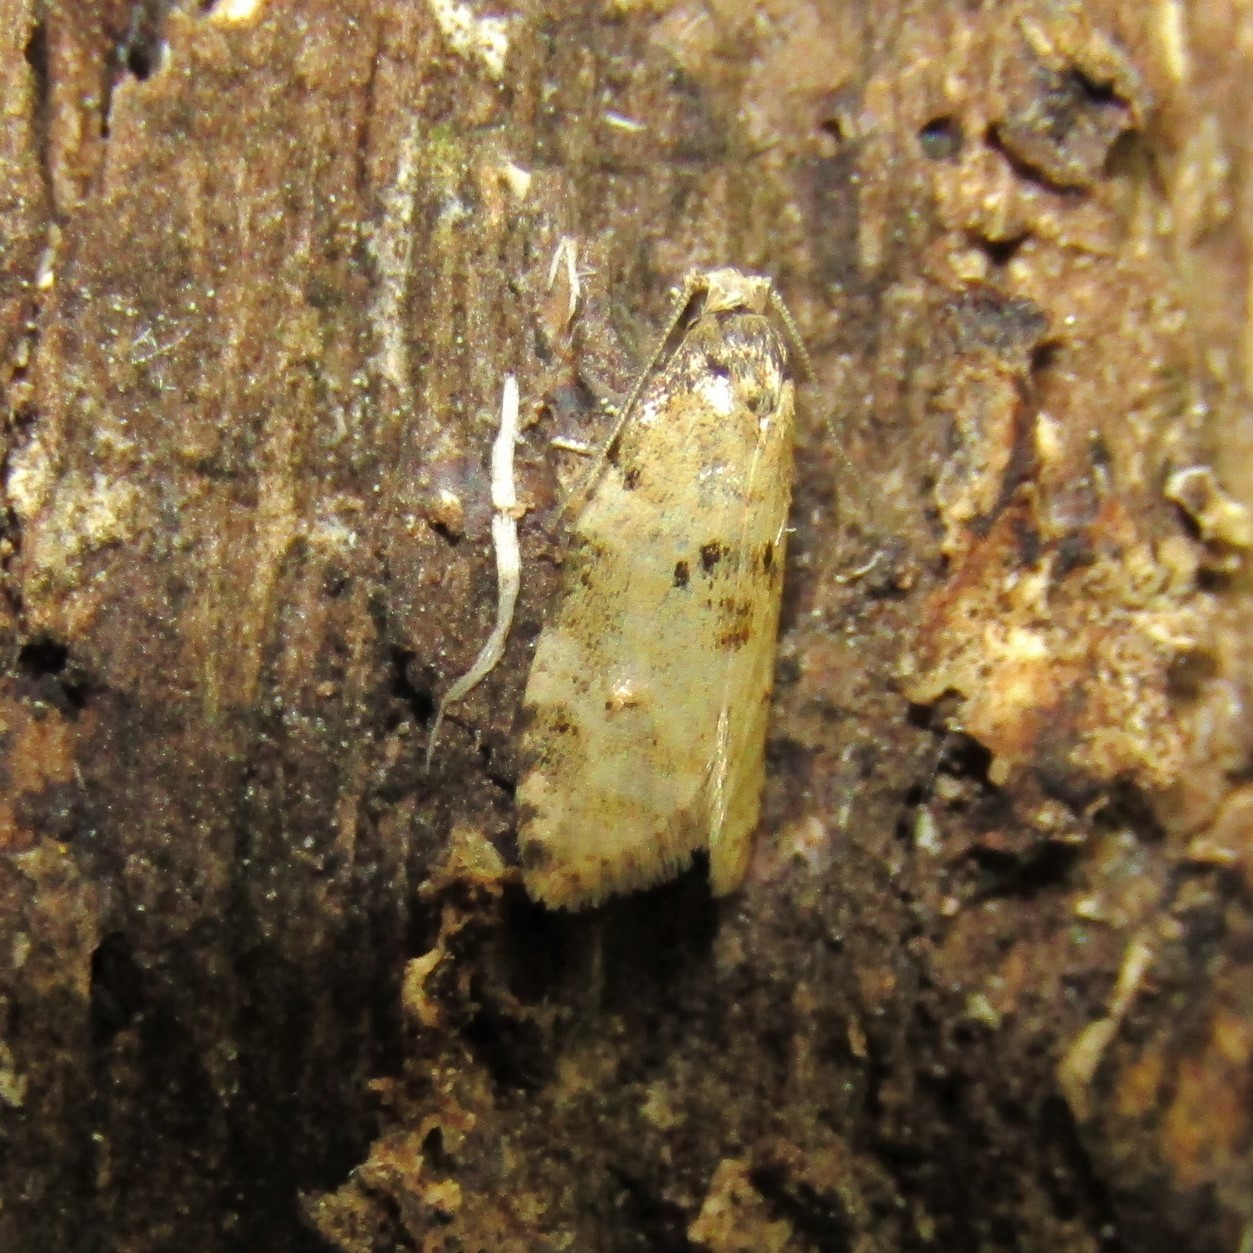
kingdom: Animalia
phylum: Arthropoda
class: Insecta
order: Lepidoptera
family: Tortricidae
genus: Dipterina
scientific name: Dipterina imbriferana
